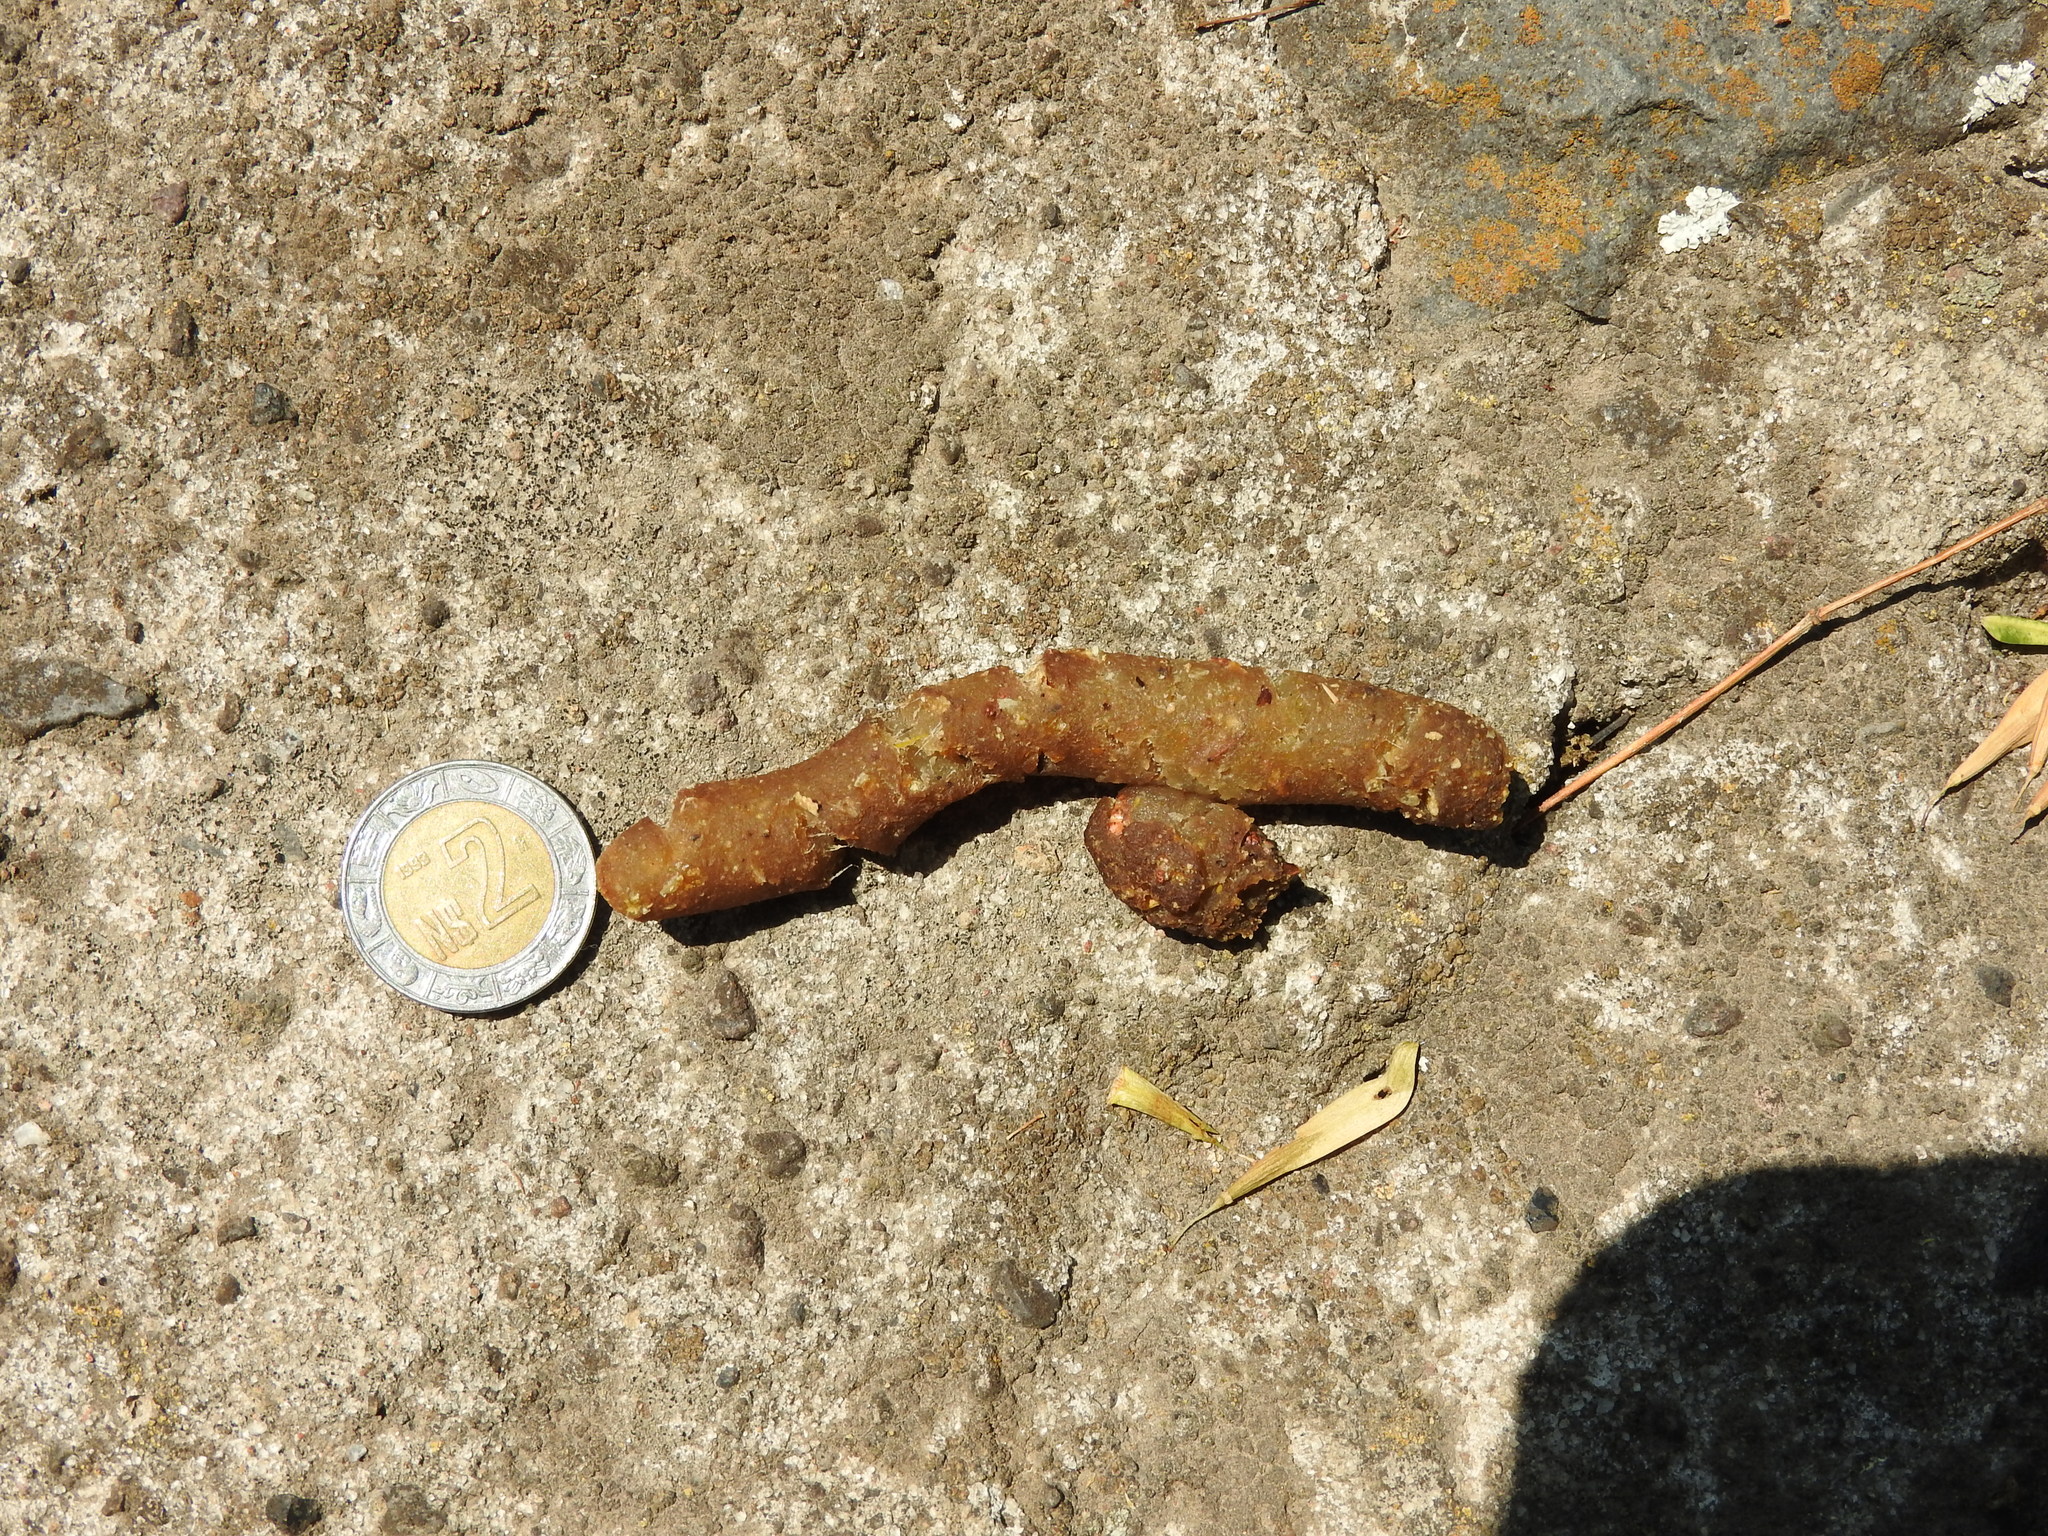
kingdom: Animalia
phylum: Chordata
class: Mammalia
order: Carnivora
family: Procyonidae
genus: Bassariscus
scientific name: Bassariscus astutus
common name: Ringtail
